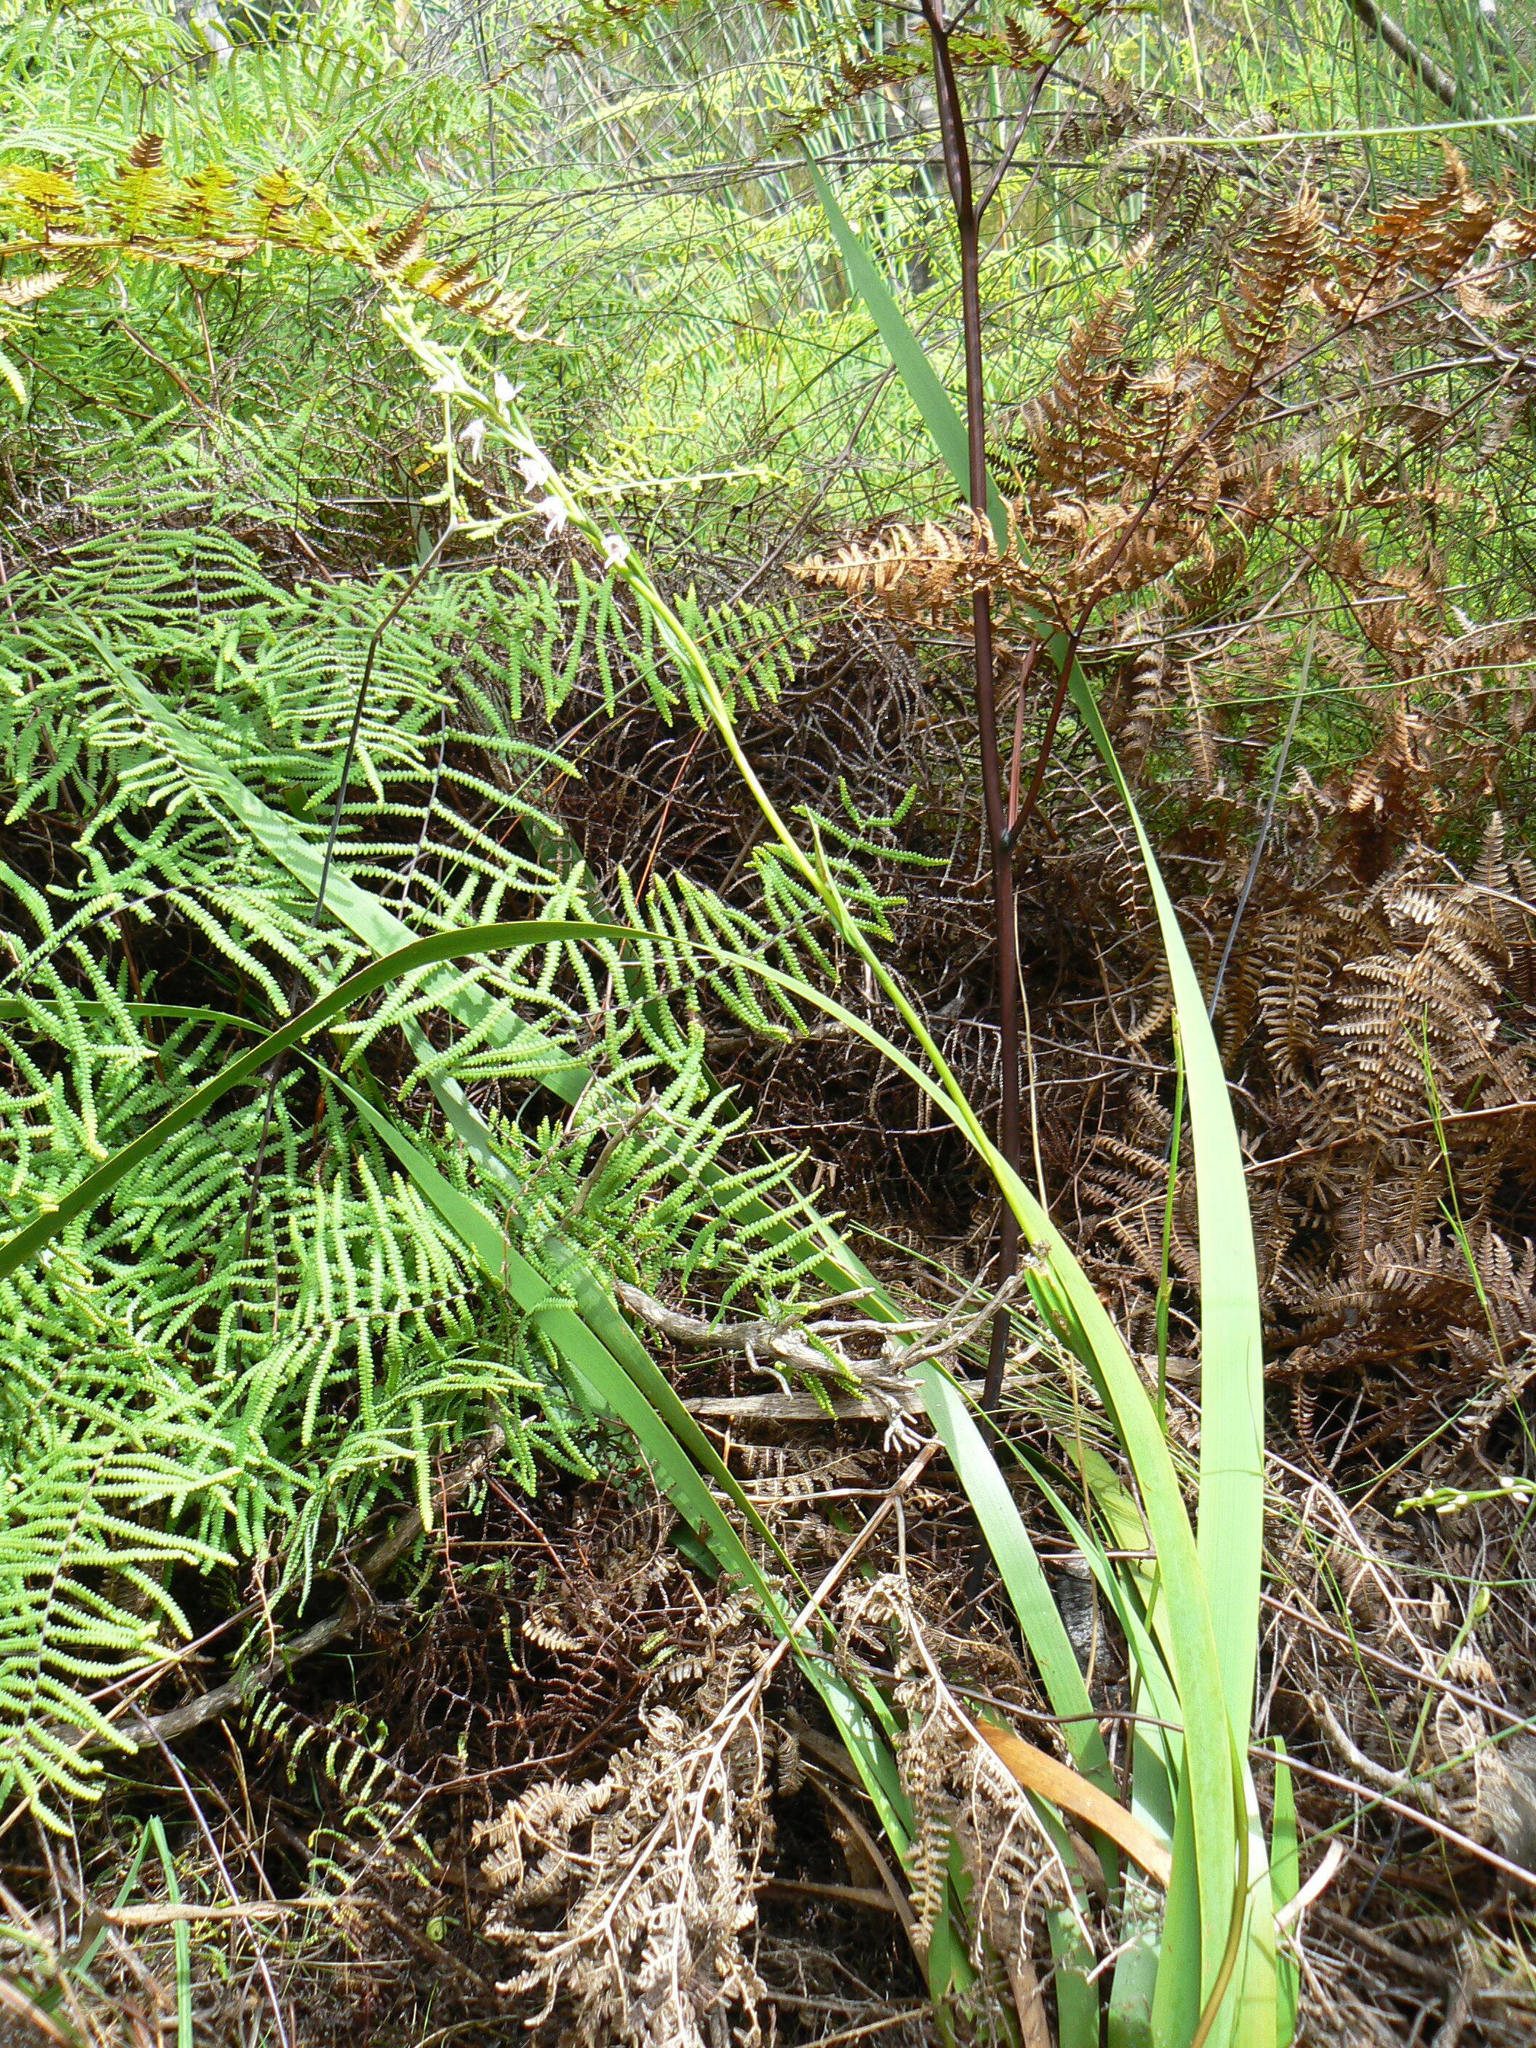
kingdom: Plantae
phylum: Tracheophyta
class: Polypodiopsida
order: Gleicheniales
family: Gleicheniaceae
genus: Gleichenia
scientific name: Gleichenia polypodioides
